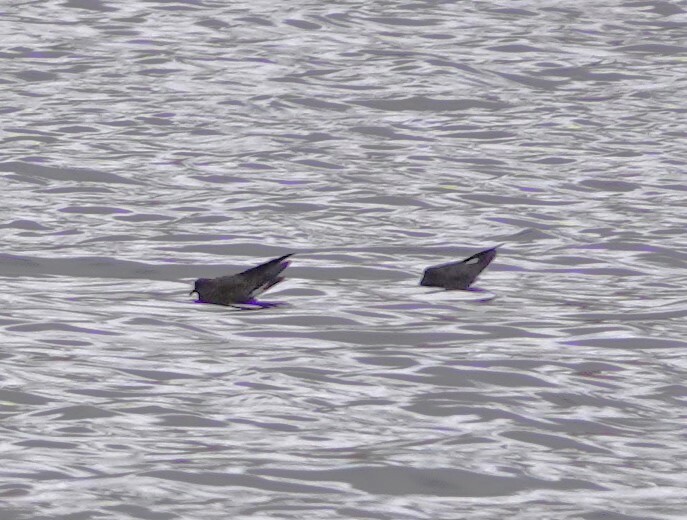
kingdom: Animalia
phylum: Chordata
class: Aves
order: Procellariiformes
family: Hydrobatidae
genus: Oceanodroma
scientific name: Oceanodroma tethys
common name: Wedge-rumped storm-petrel
